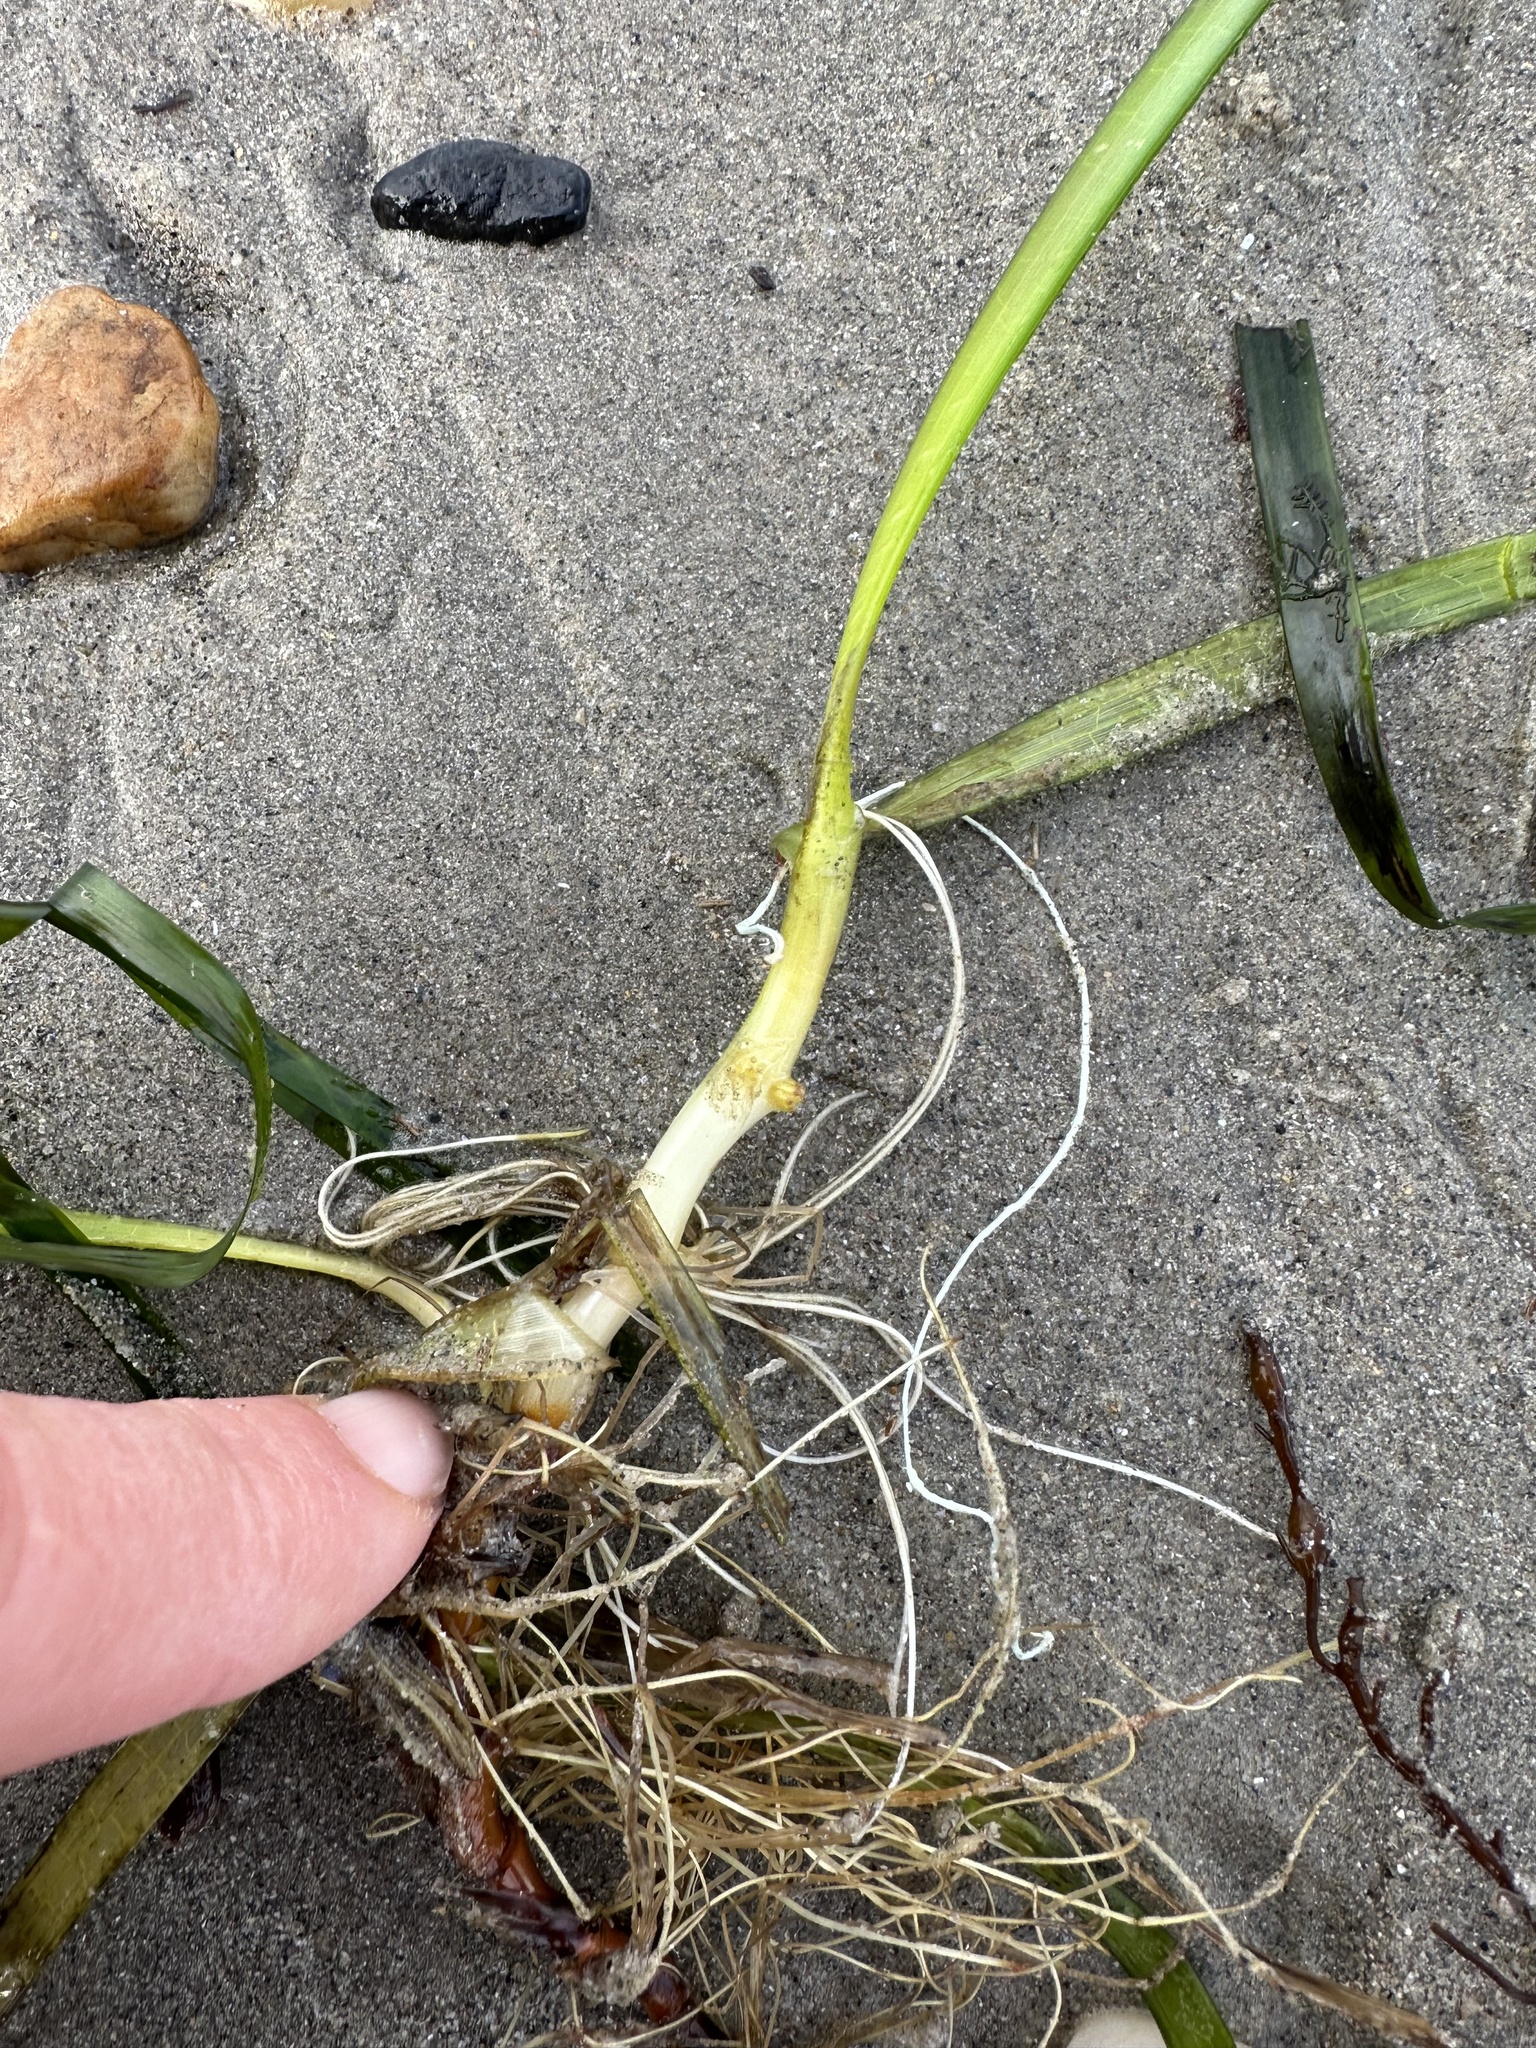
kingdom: Plantae
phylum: Tracheophyta
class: Liliopsida
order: Alismatales
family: Zosteraceae
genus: Zostera
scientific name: Zostera marina
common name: Eelgrass
